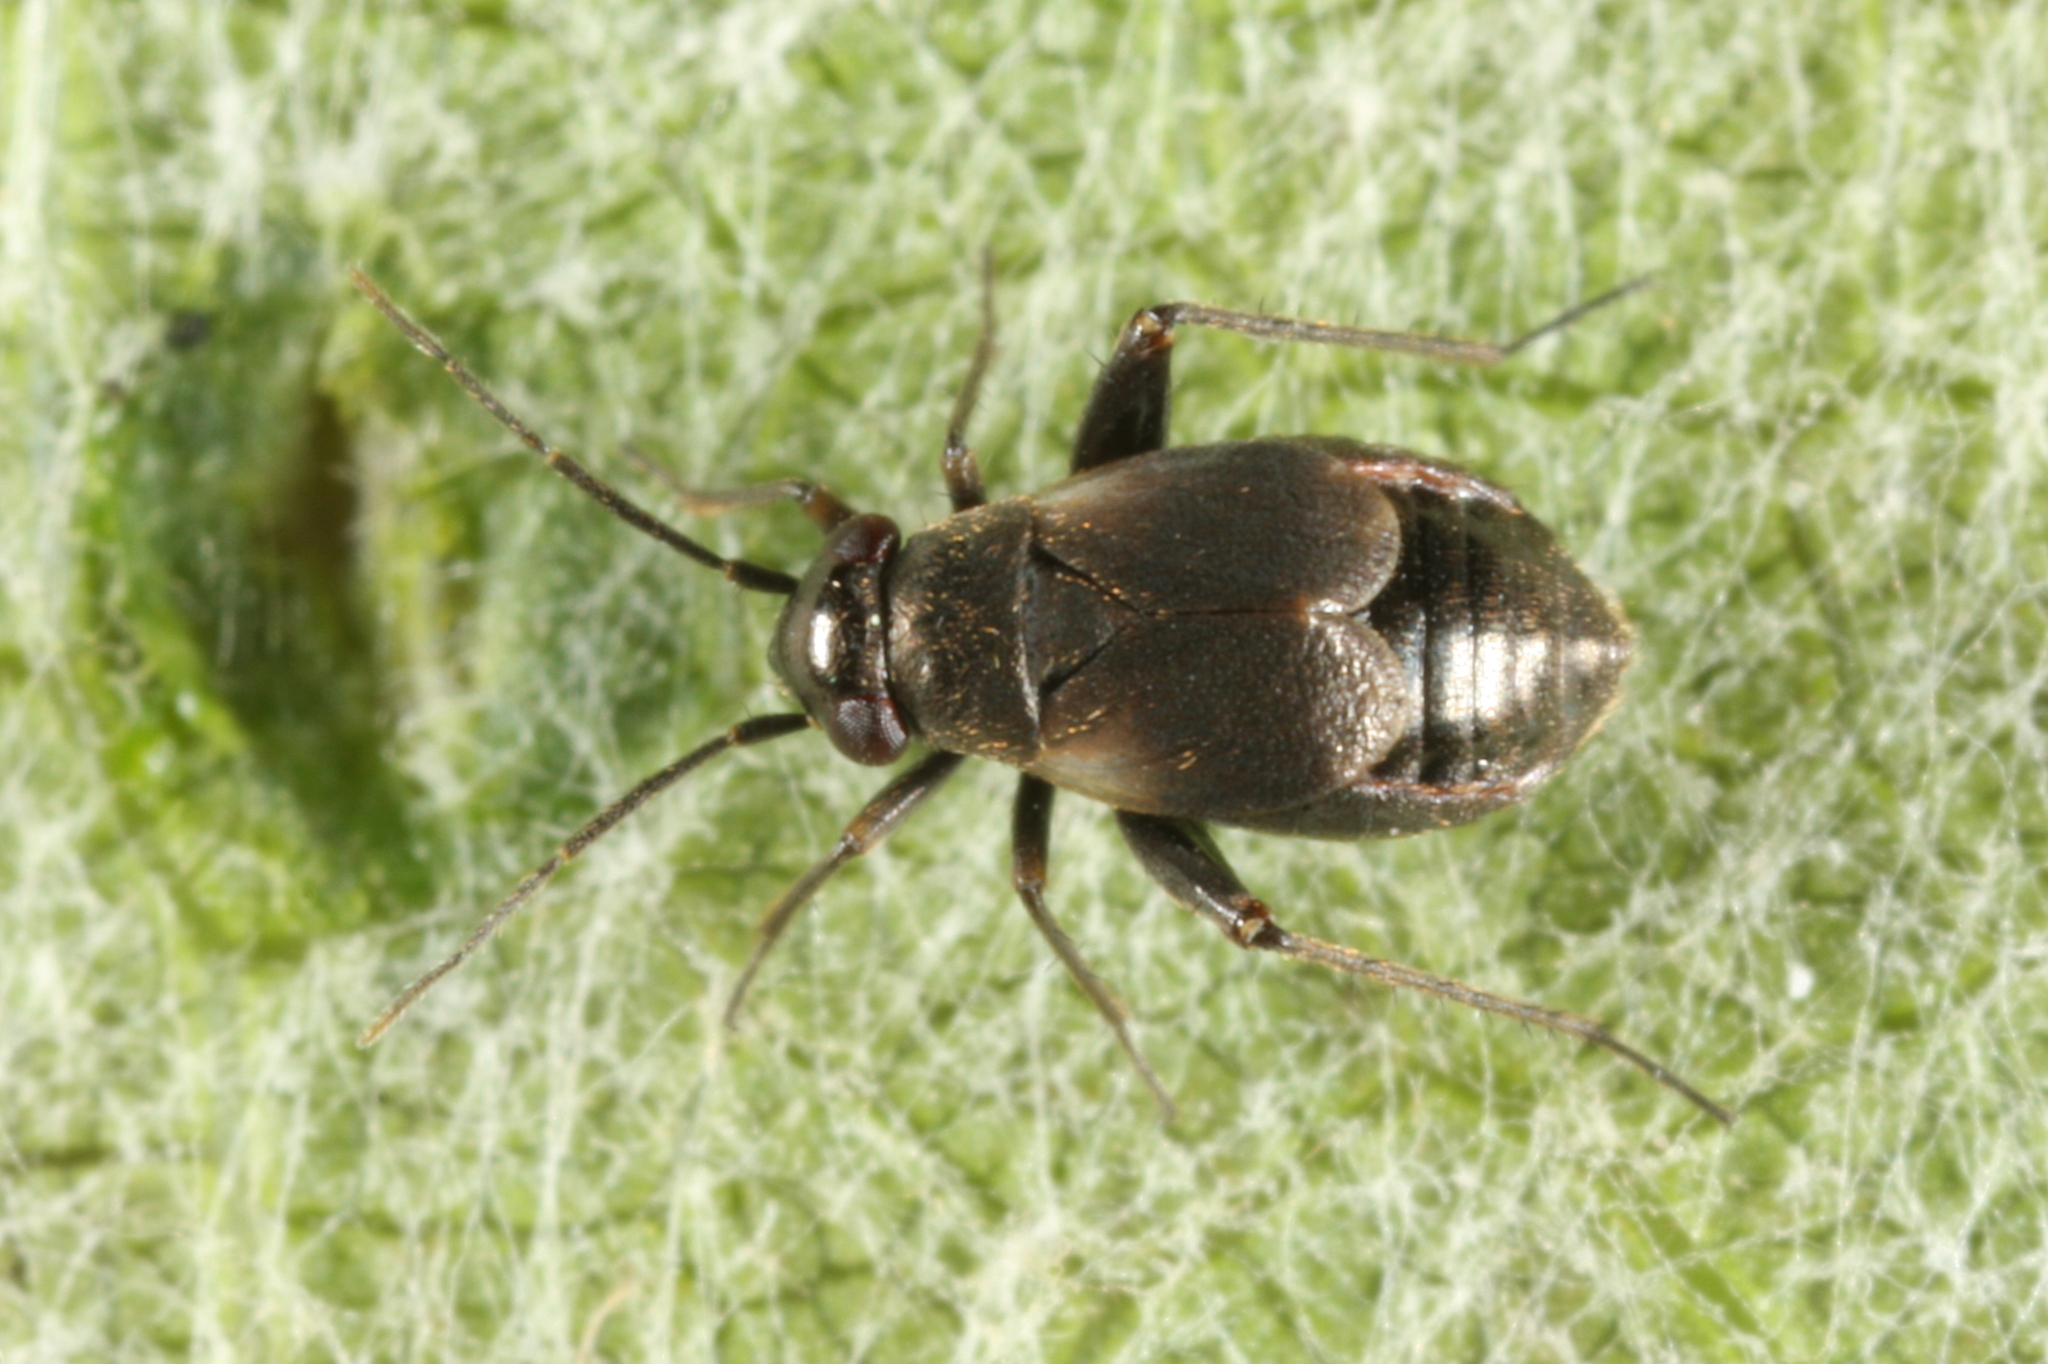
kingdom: Animalia
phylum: Arthropoda
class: Insecta
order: Hemiptera
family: Miridae
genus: Chlamydatus
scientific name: Chlamydatus saltitans
